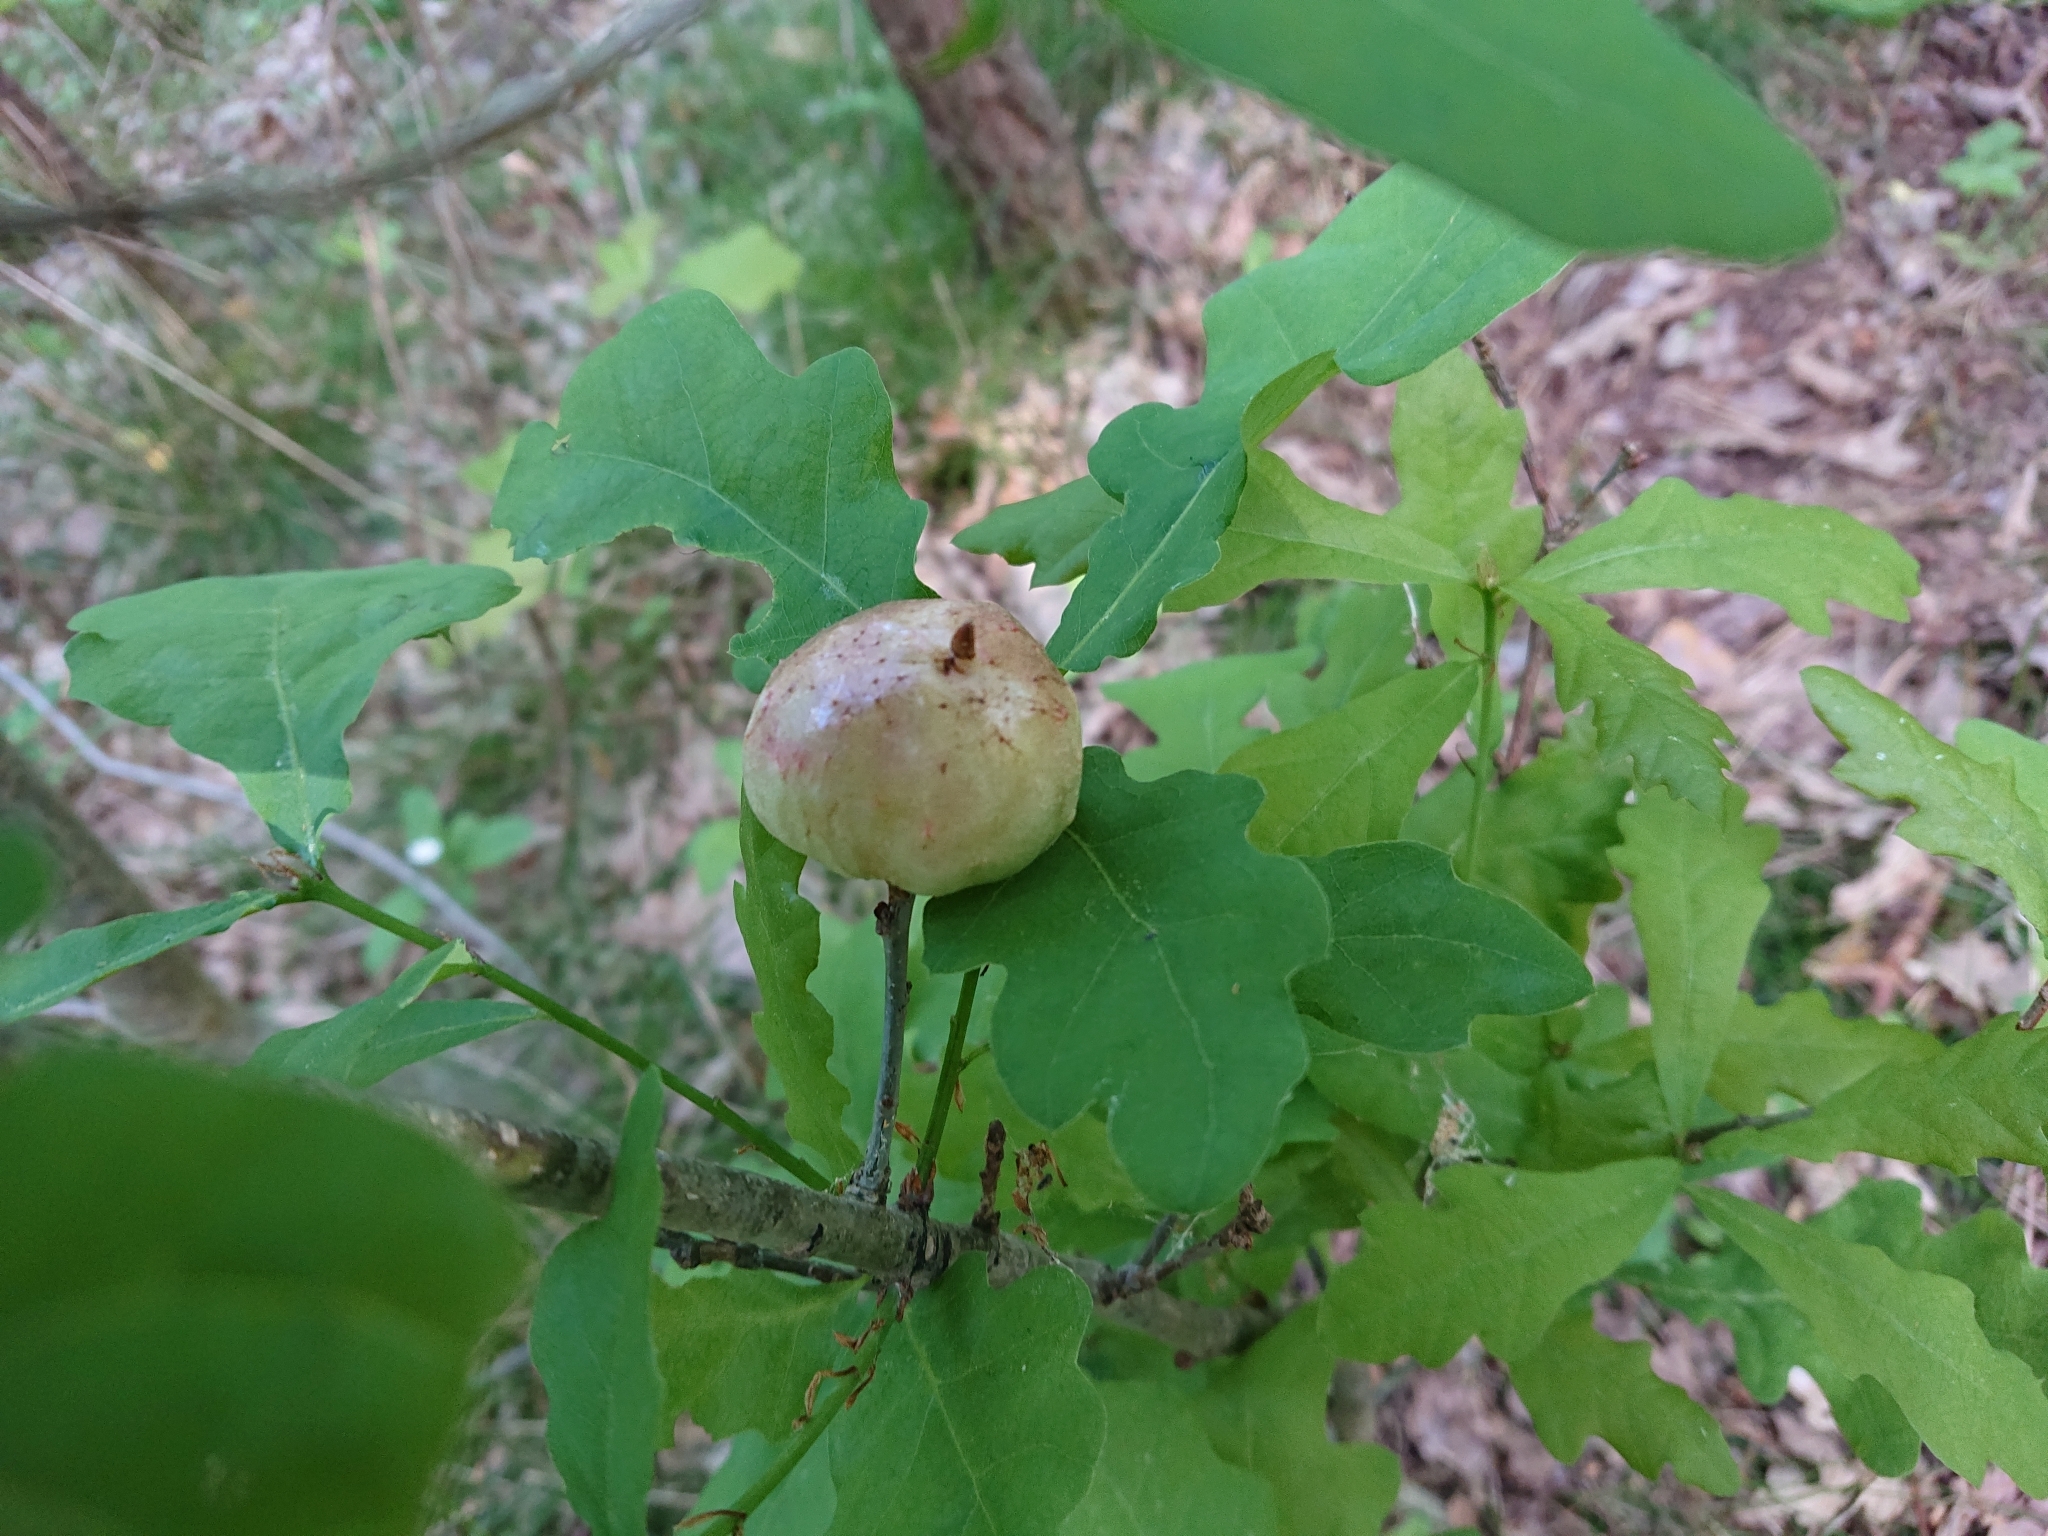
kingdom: Animalia
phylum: Arthropoda
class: Insecta
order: Hymenoptera
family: Cynipidae
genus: Biorhiza
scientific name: Biorhiza pallida
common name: Oak apple
